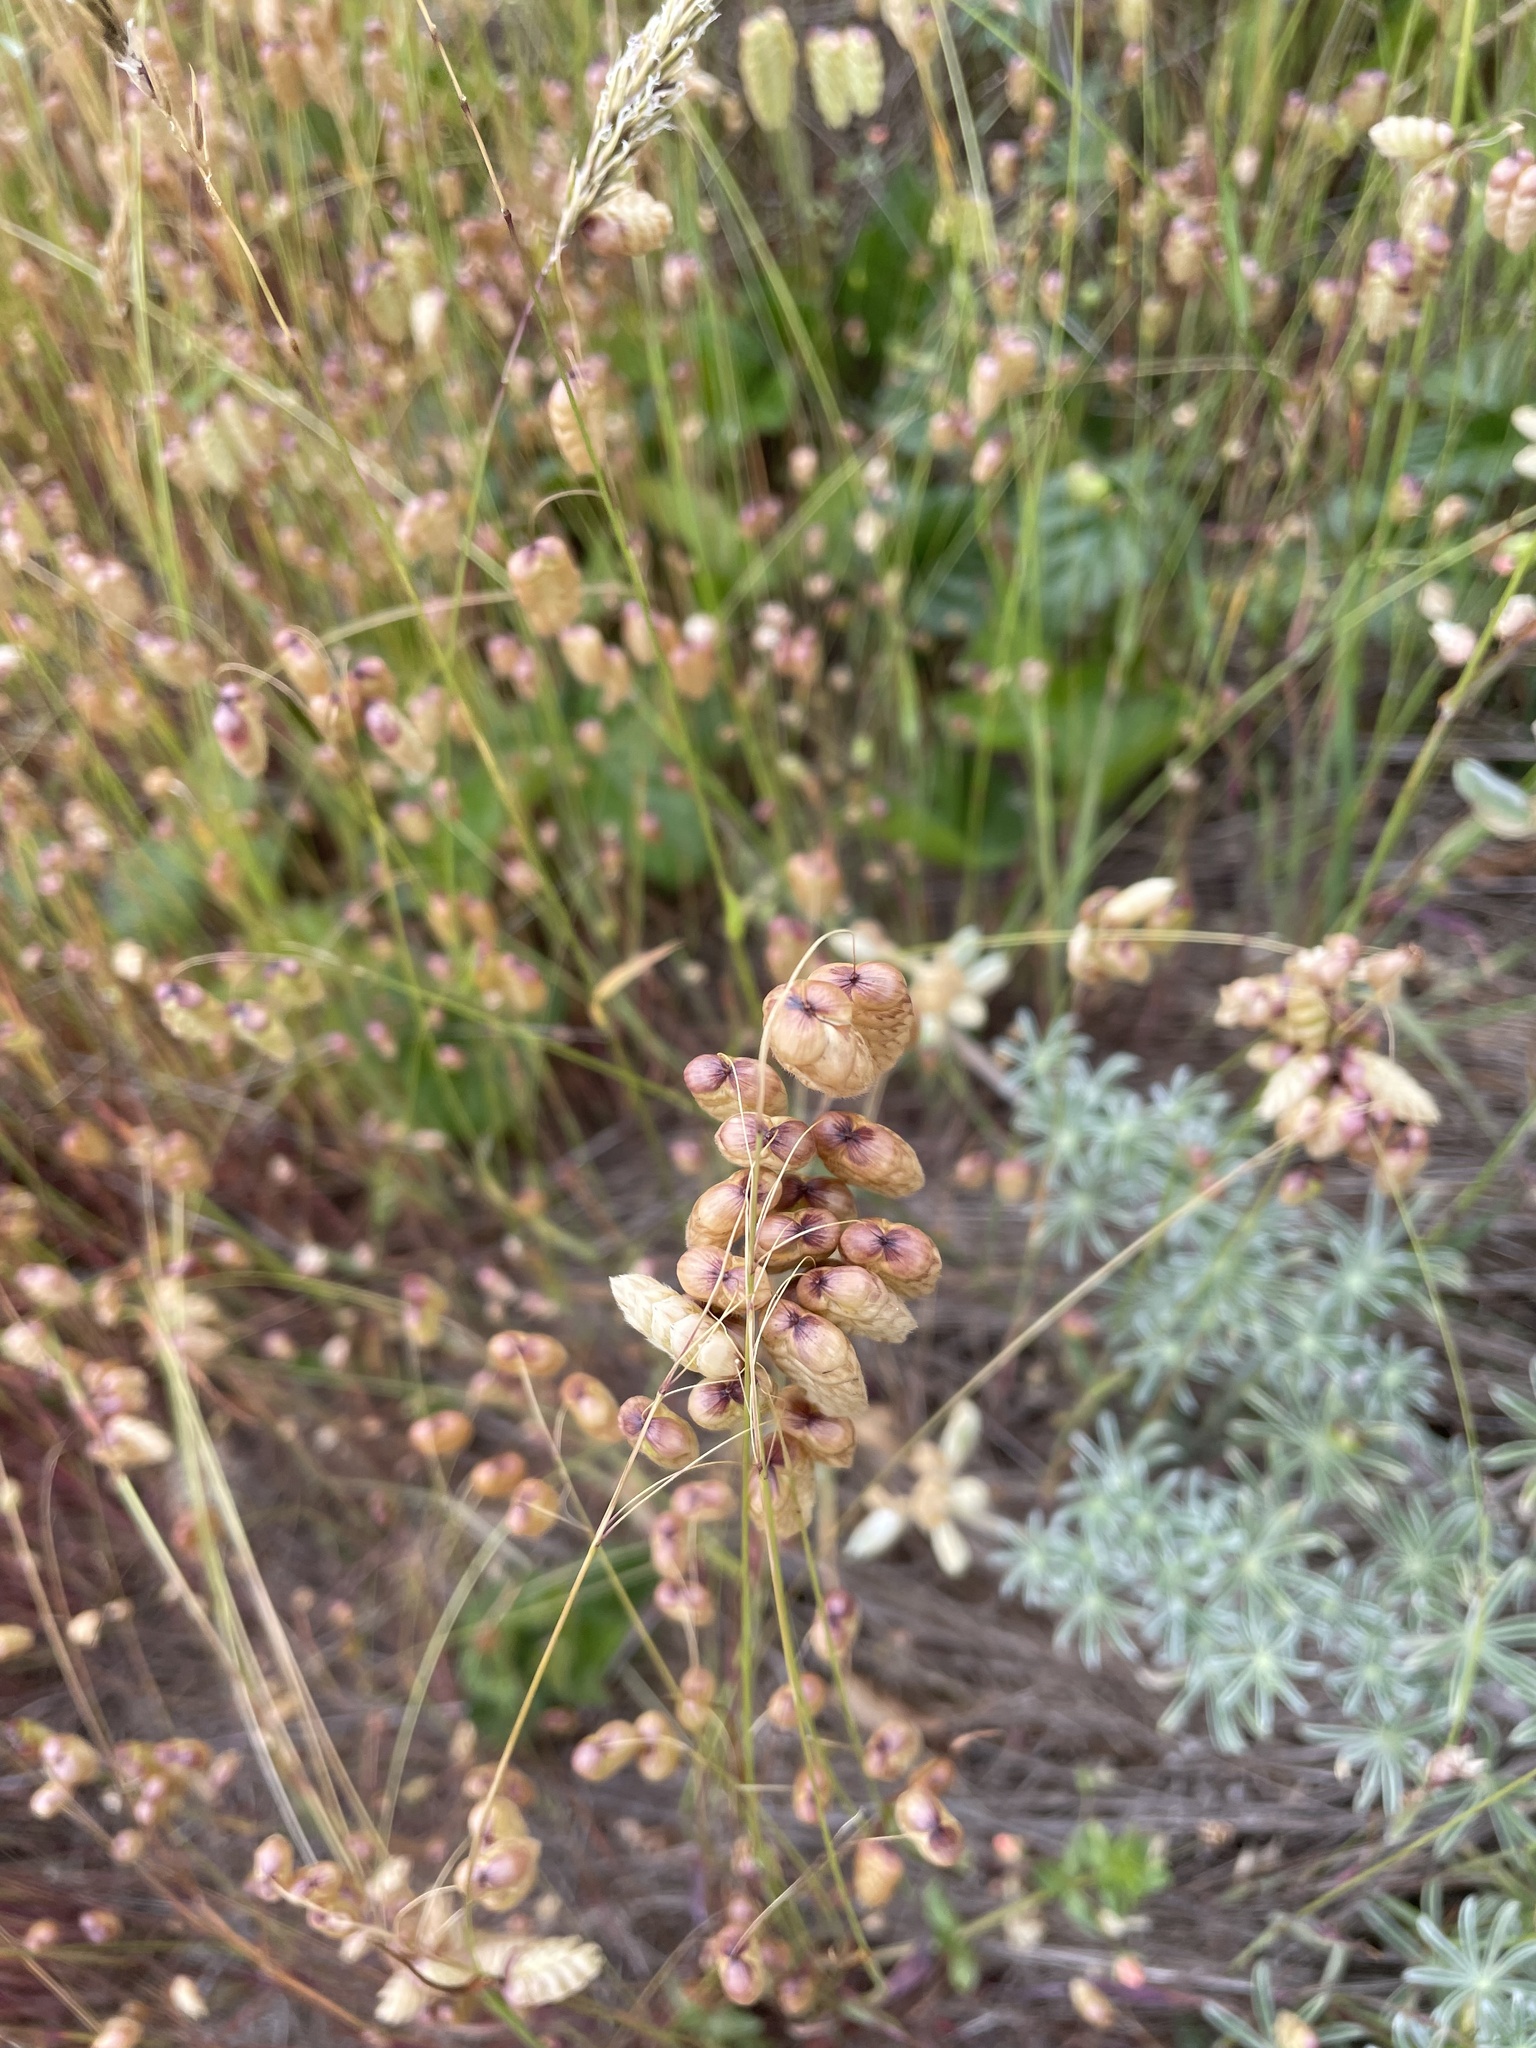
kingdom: Plantae
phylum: Tracheophyta
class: Liliopsida
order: Poales
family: Poaceae
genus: Briza
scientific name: Briza maxima
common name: Big quakinggrass
